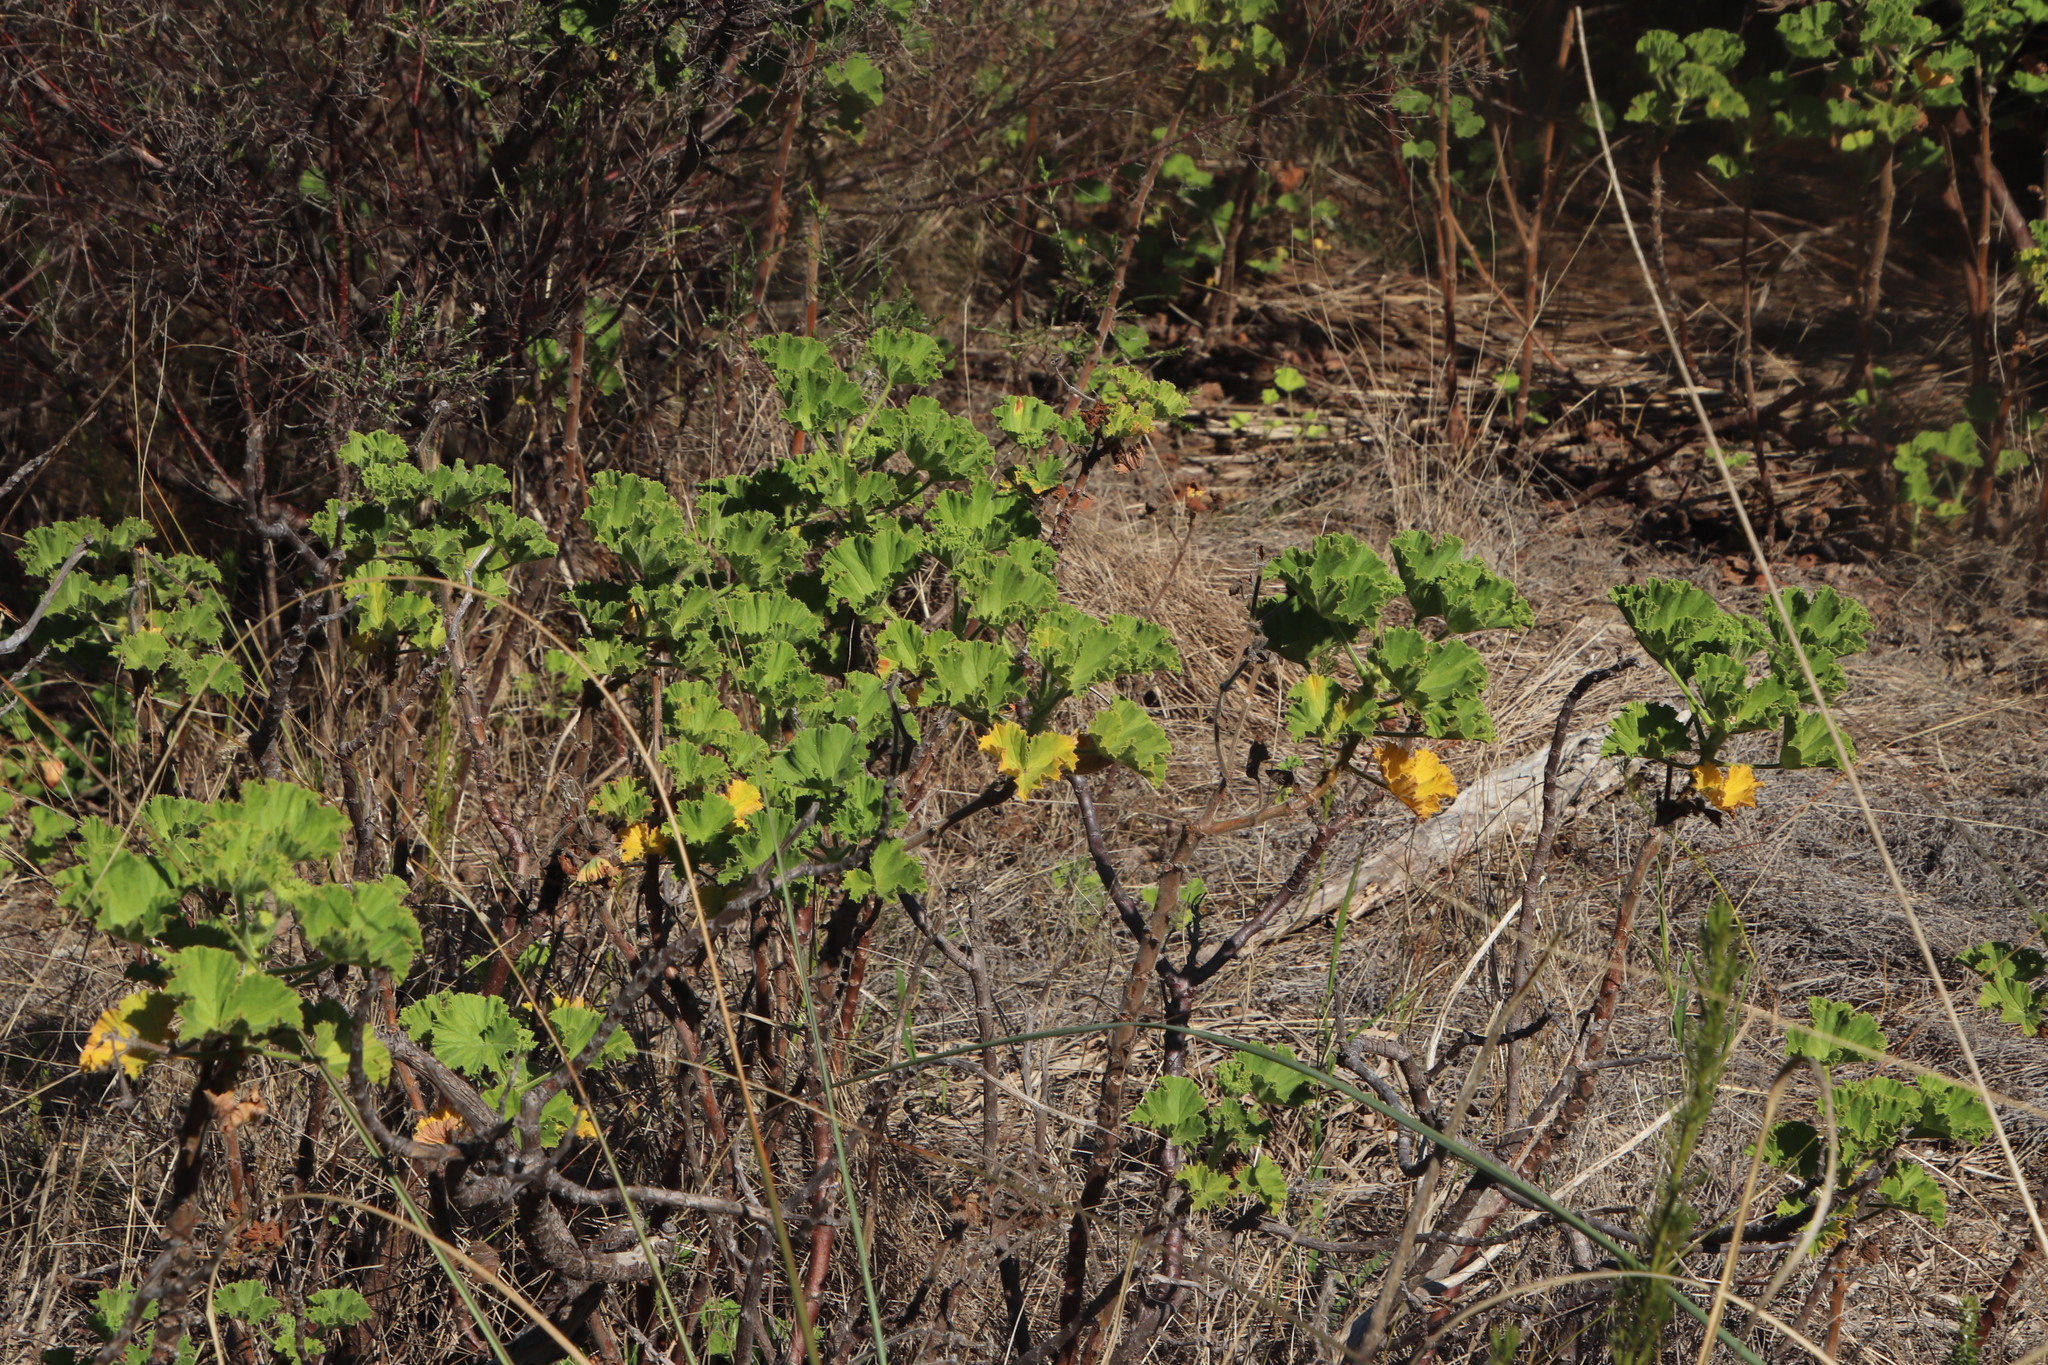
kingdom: Plantae
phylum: Tracheophyta
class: Magnoliopsida
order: Geraniales
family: Geraniaceae
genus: Pelargonium
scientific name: Pelargonium cucullatum
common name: Tree pelargonium
